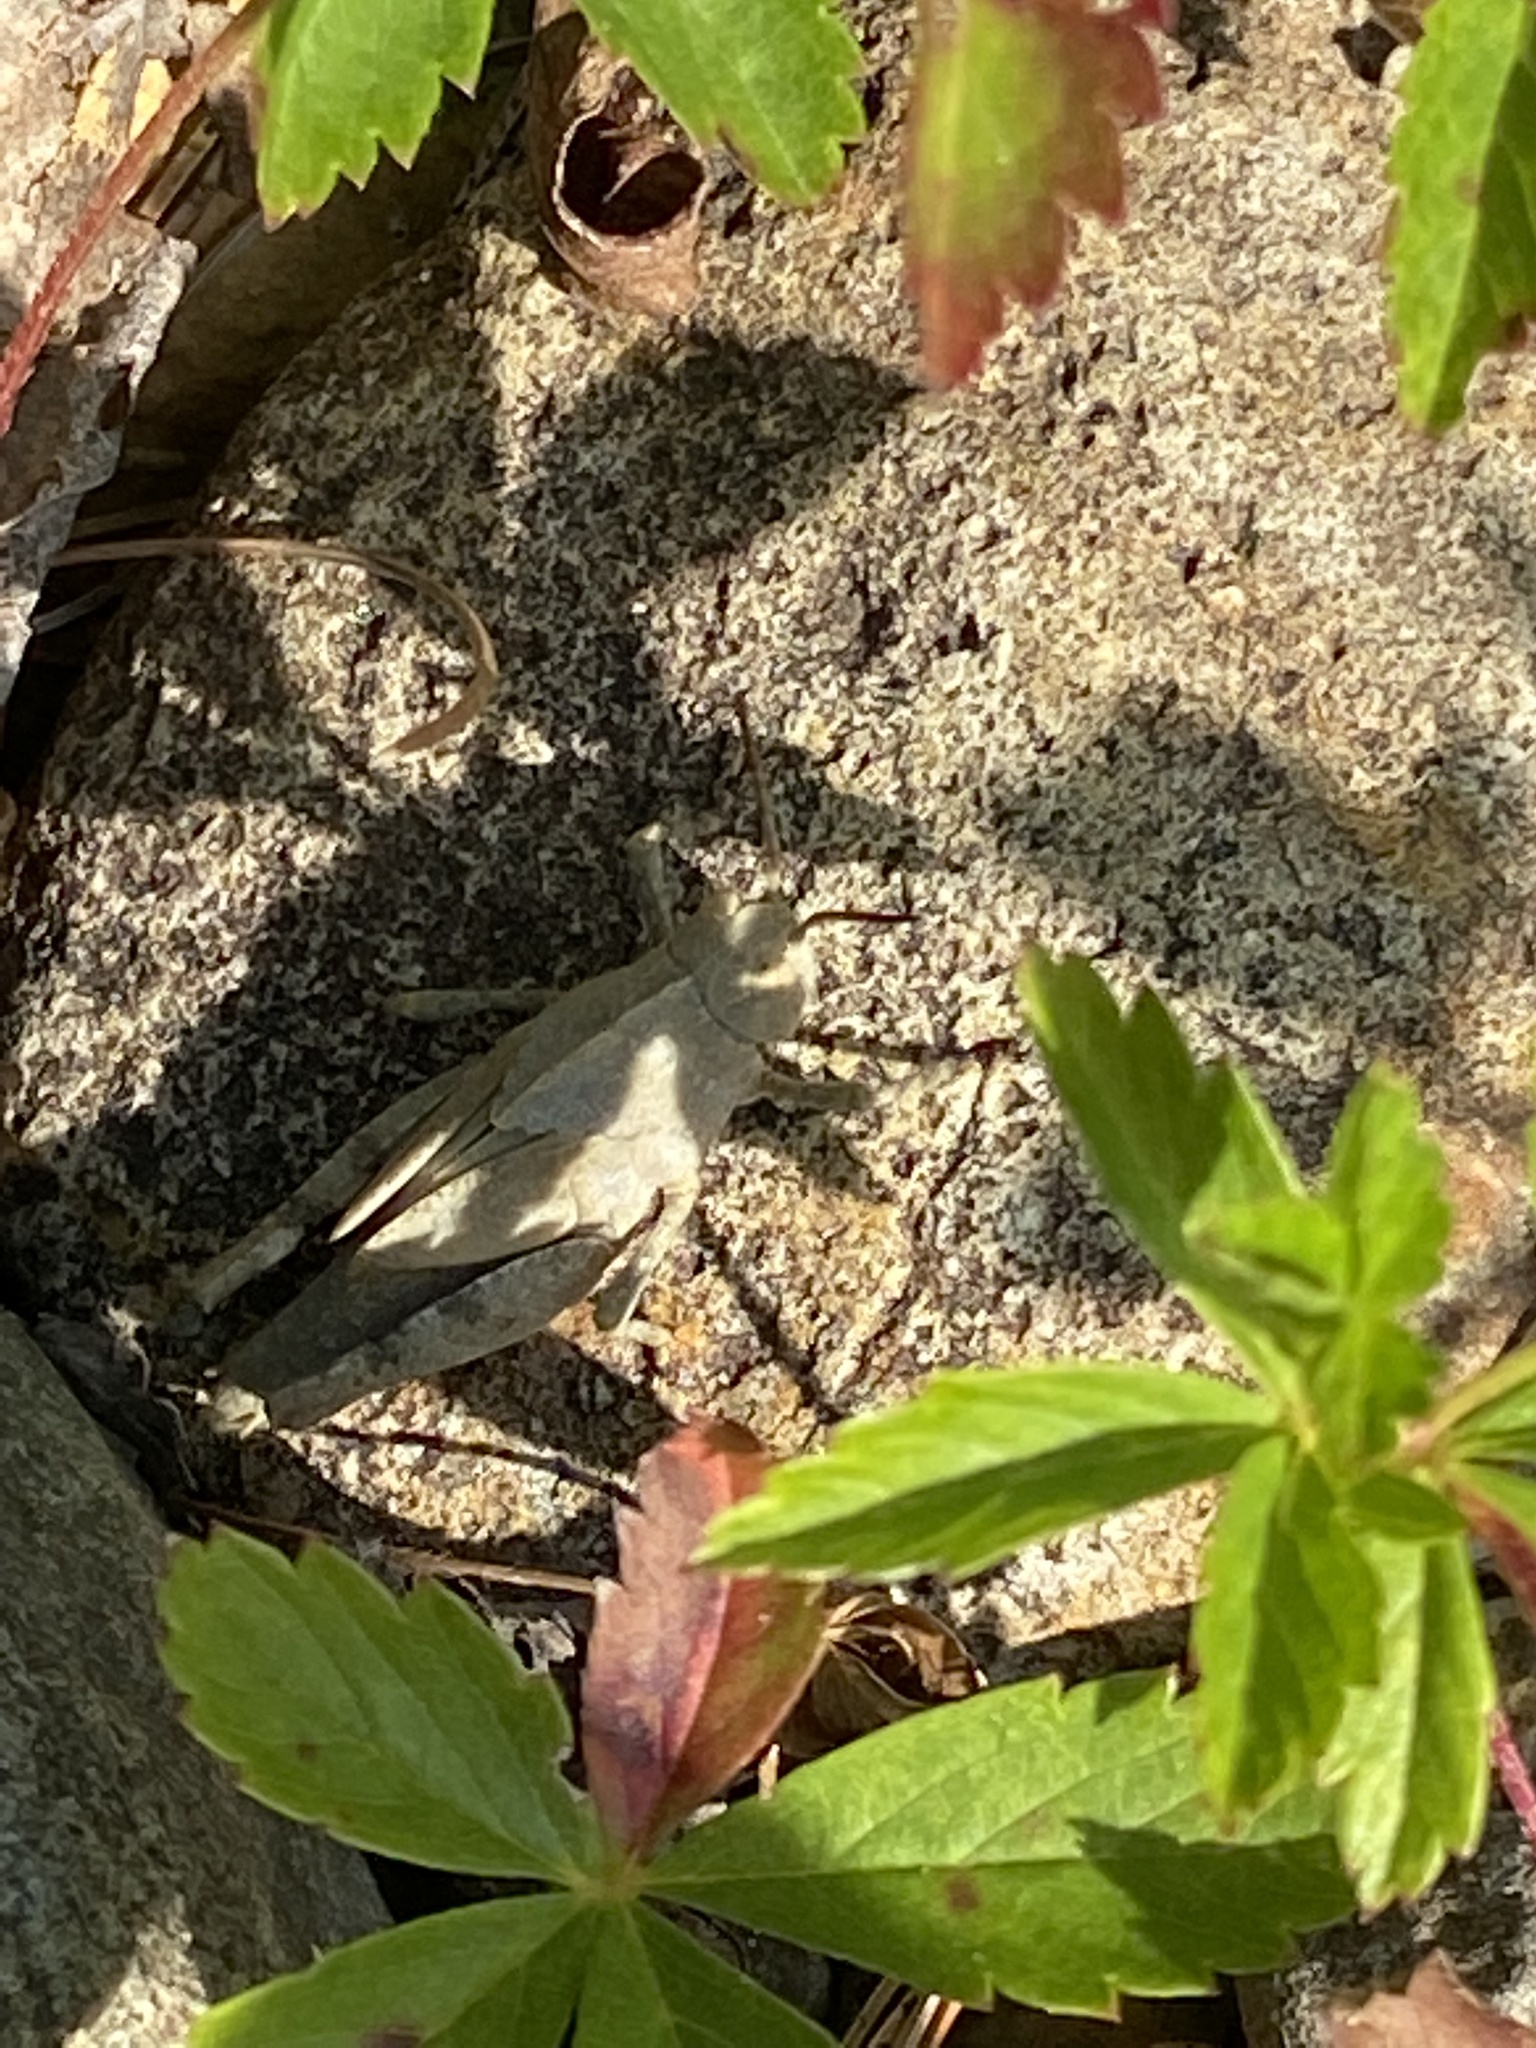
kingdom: Animalia
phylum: Arthropoda
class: Insecta
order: Orthoptera
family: Acrididae
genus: Dissosteira
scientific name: Dissosteira carolina
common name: Carolina grasshopper
